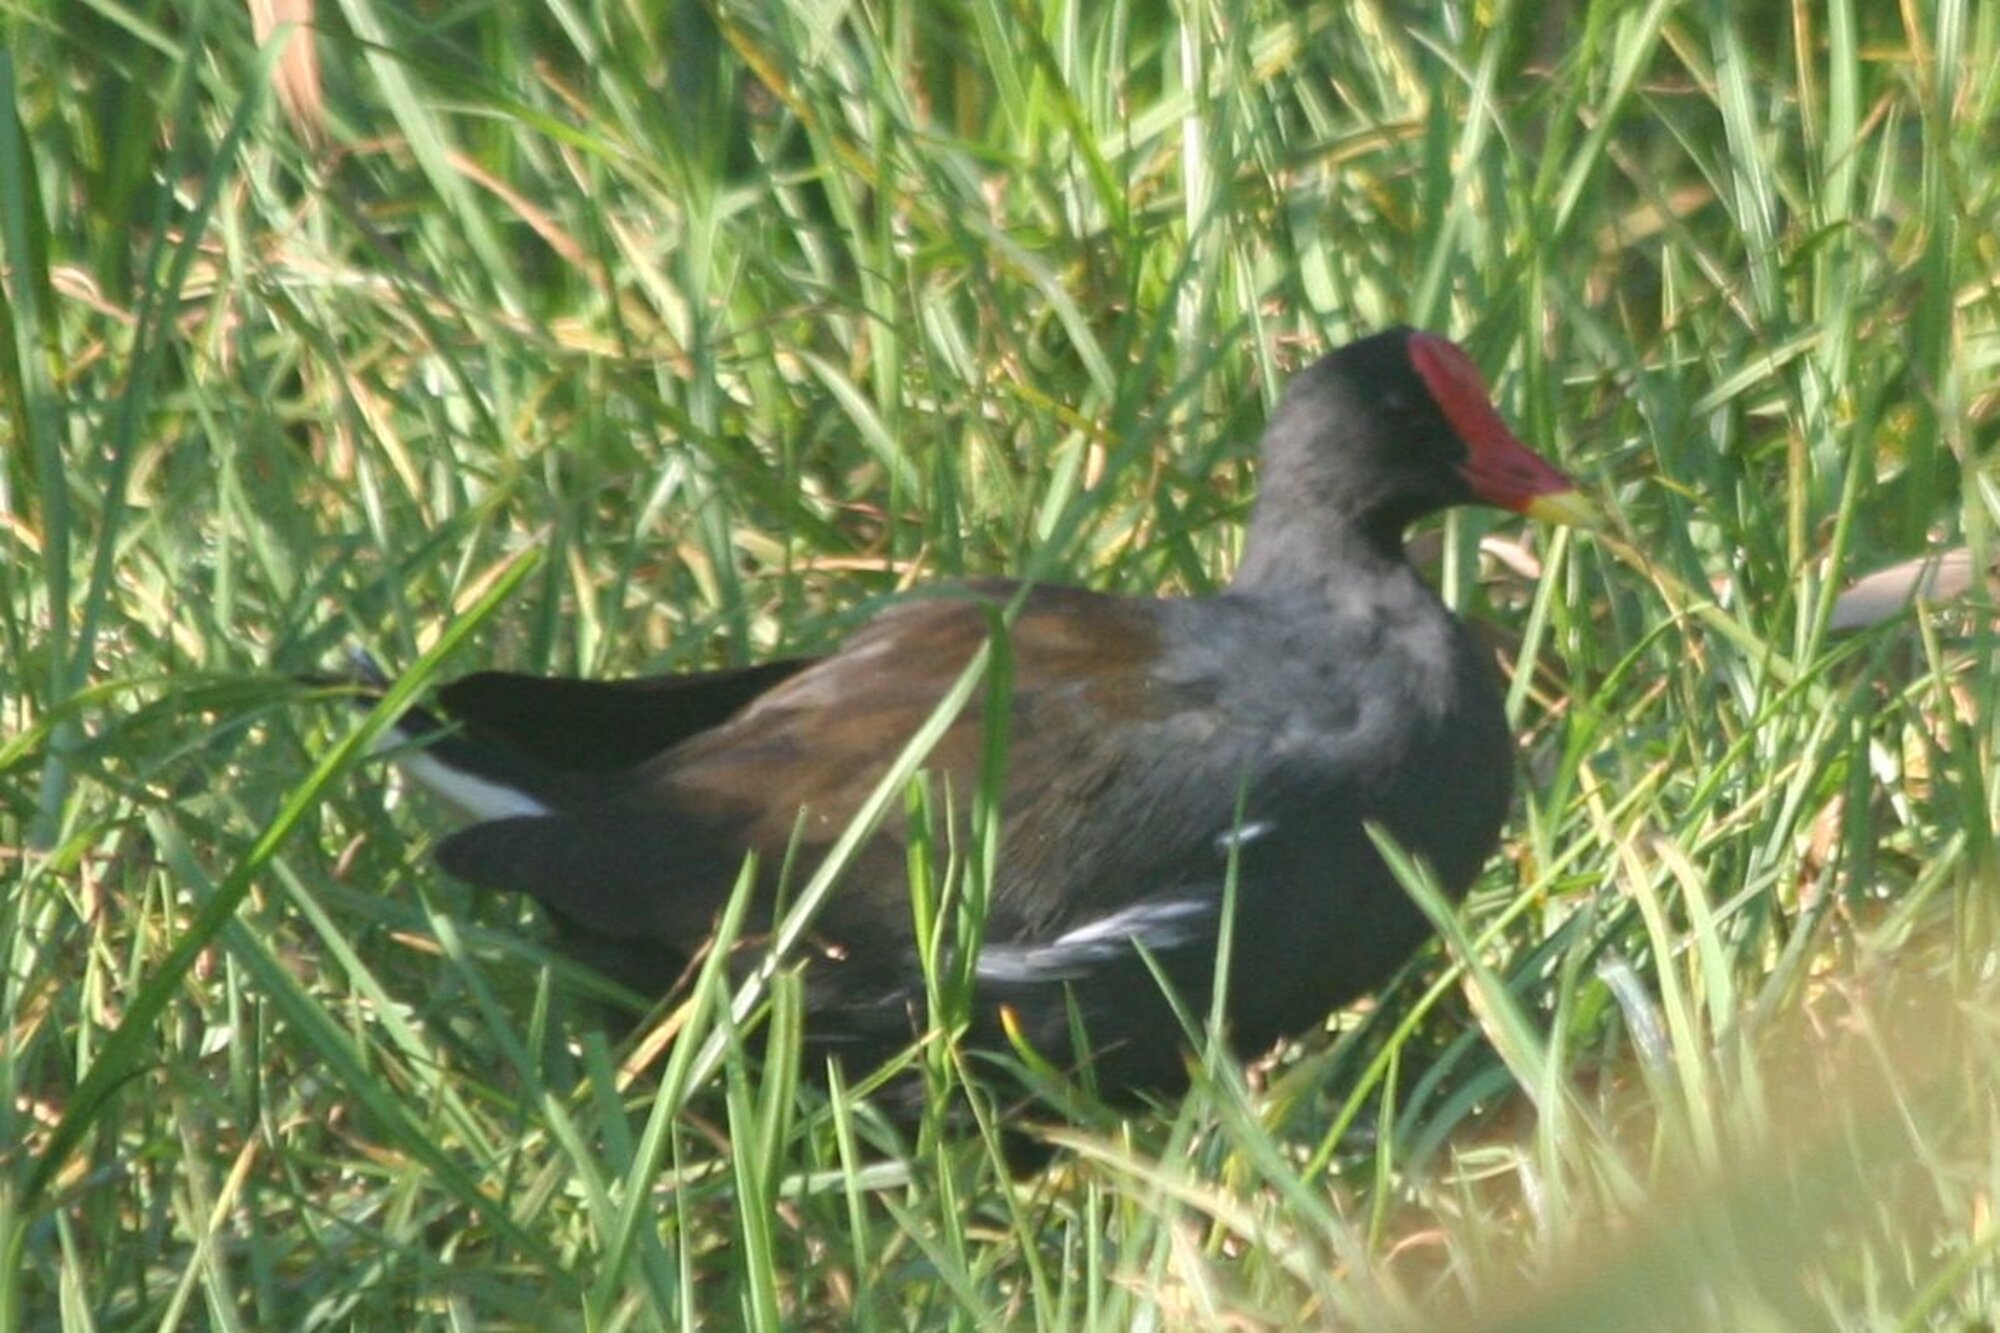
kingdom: Animalia
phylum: Chordata
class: Aves
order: Gruiformes
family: Rallidae
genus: Gallinula
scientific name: Gallinula chloropus
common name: Common moorhen
